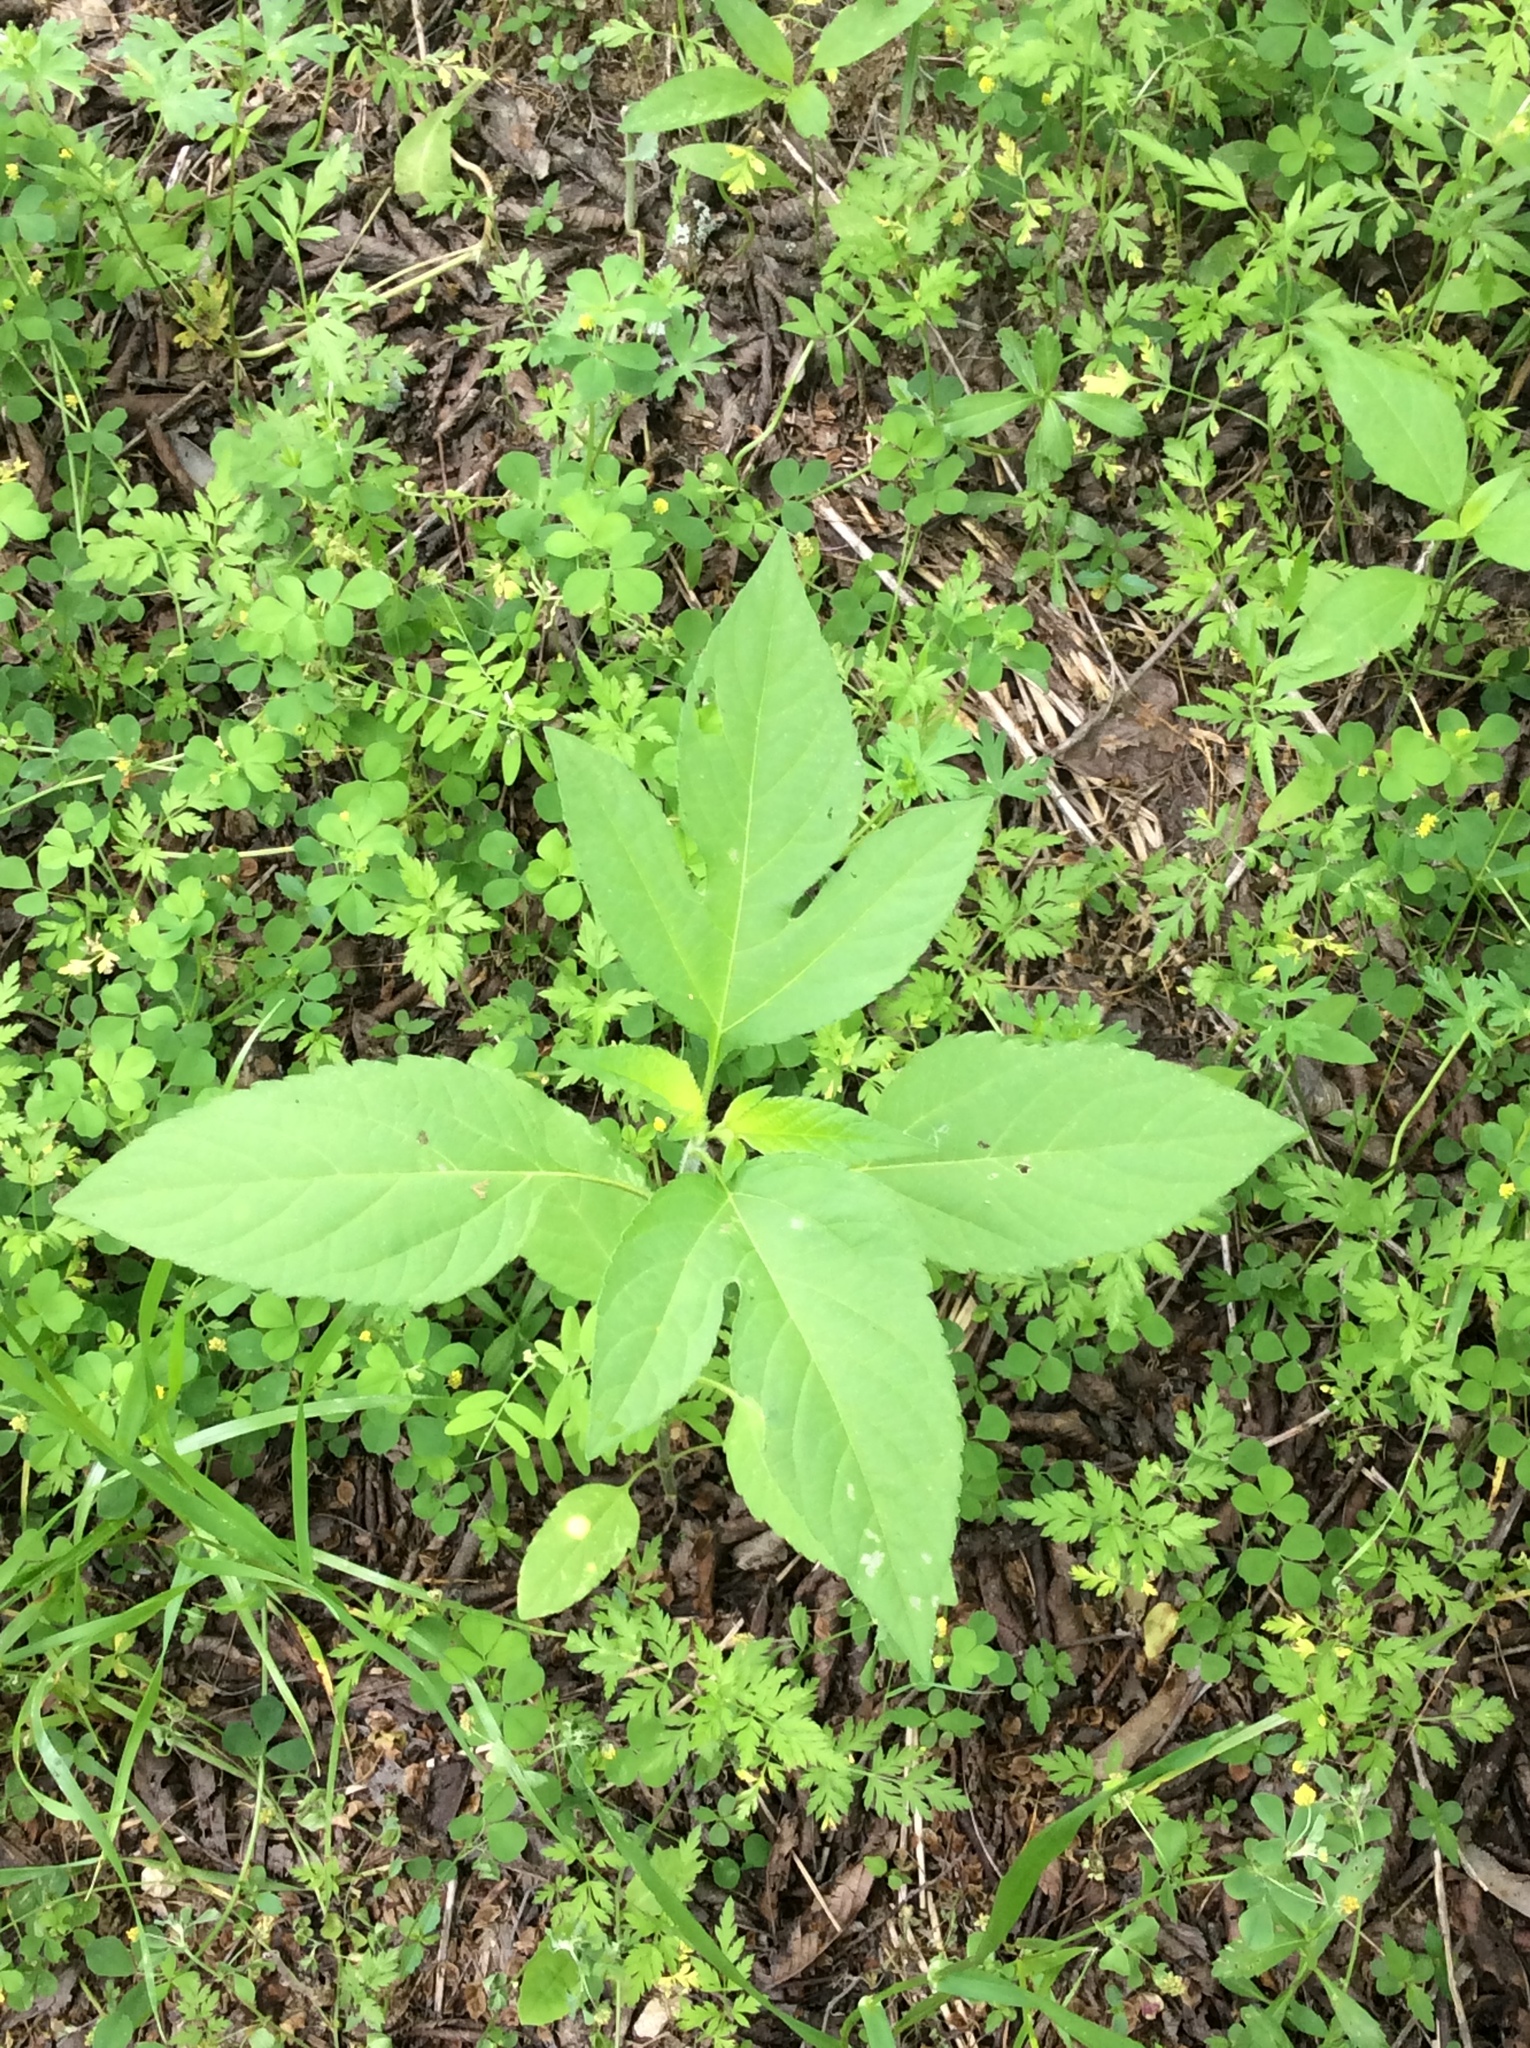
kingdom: Plantae
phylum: Tracheophyta
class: Magnoliopsida
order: Asterales
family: Asteraceae
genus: Ambrosia
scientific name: Ambrosia trifida
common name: Giant ragweed
